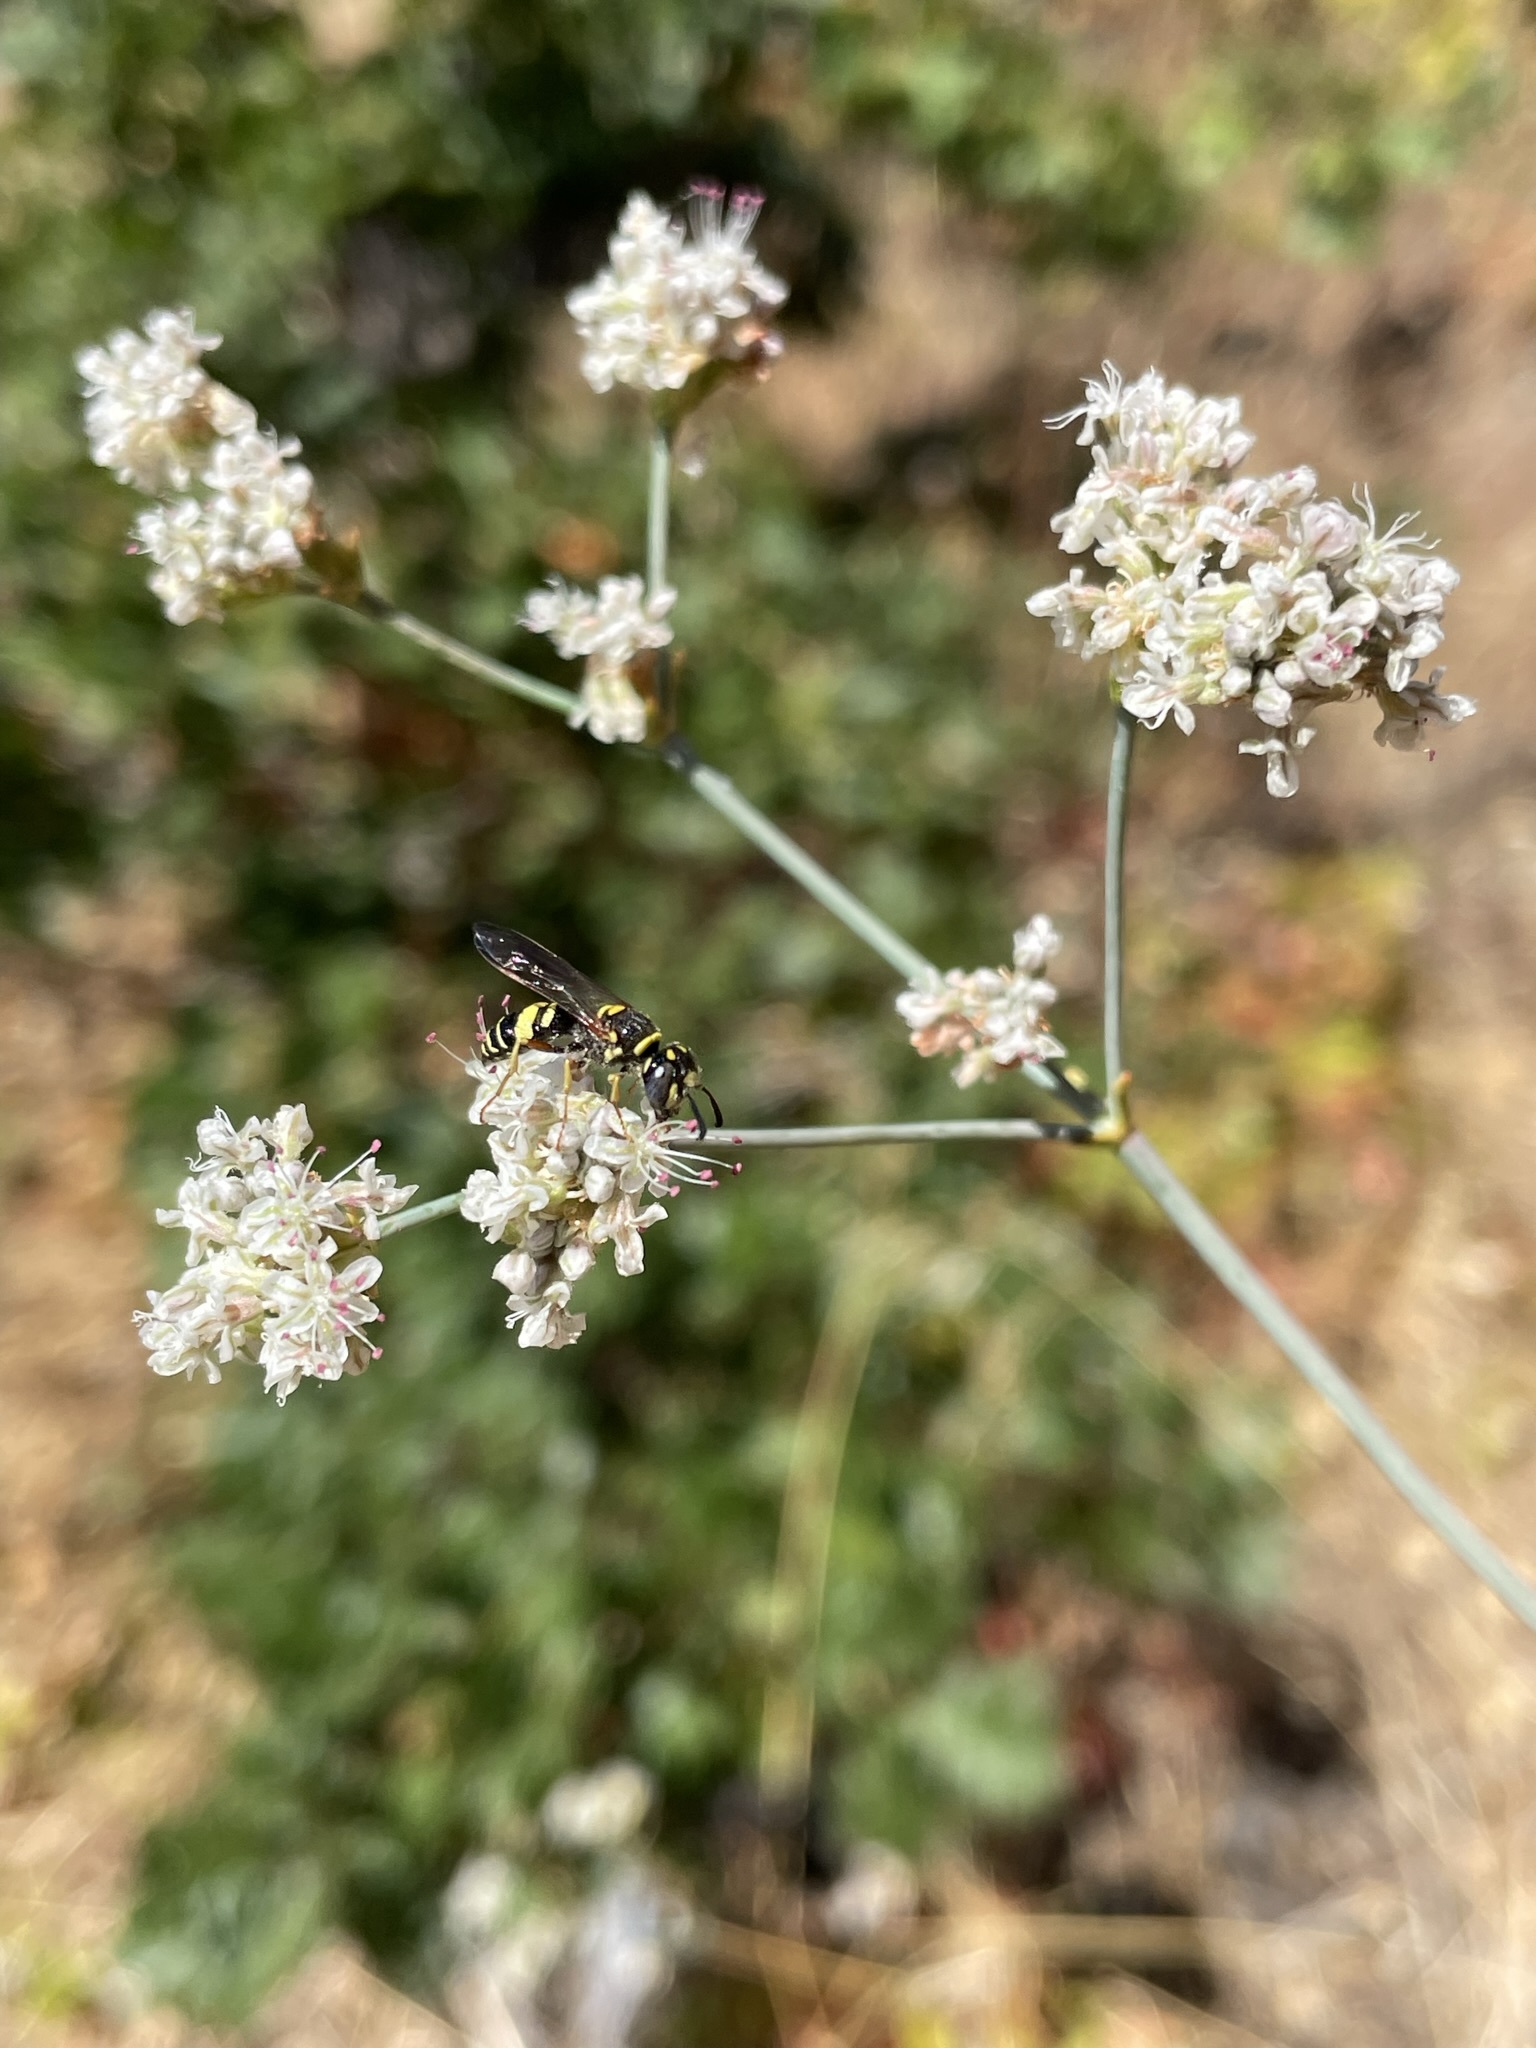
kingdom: Plantae
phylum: Tracheophyta
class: Magnoliopsida
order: Caryophyllales
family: Polygonaceae
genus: Eriogonum
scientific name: Eriogonum elatum
